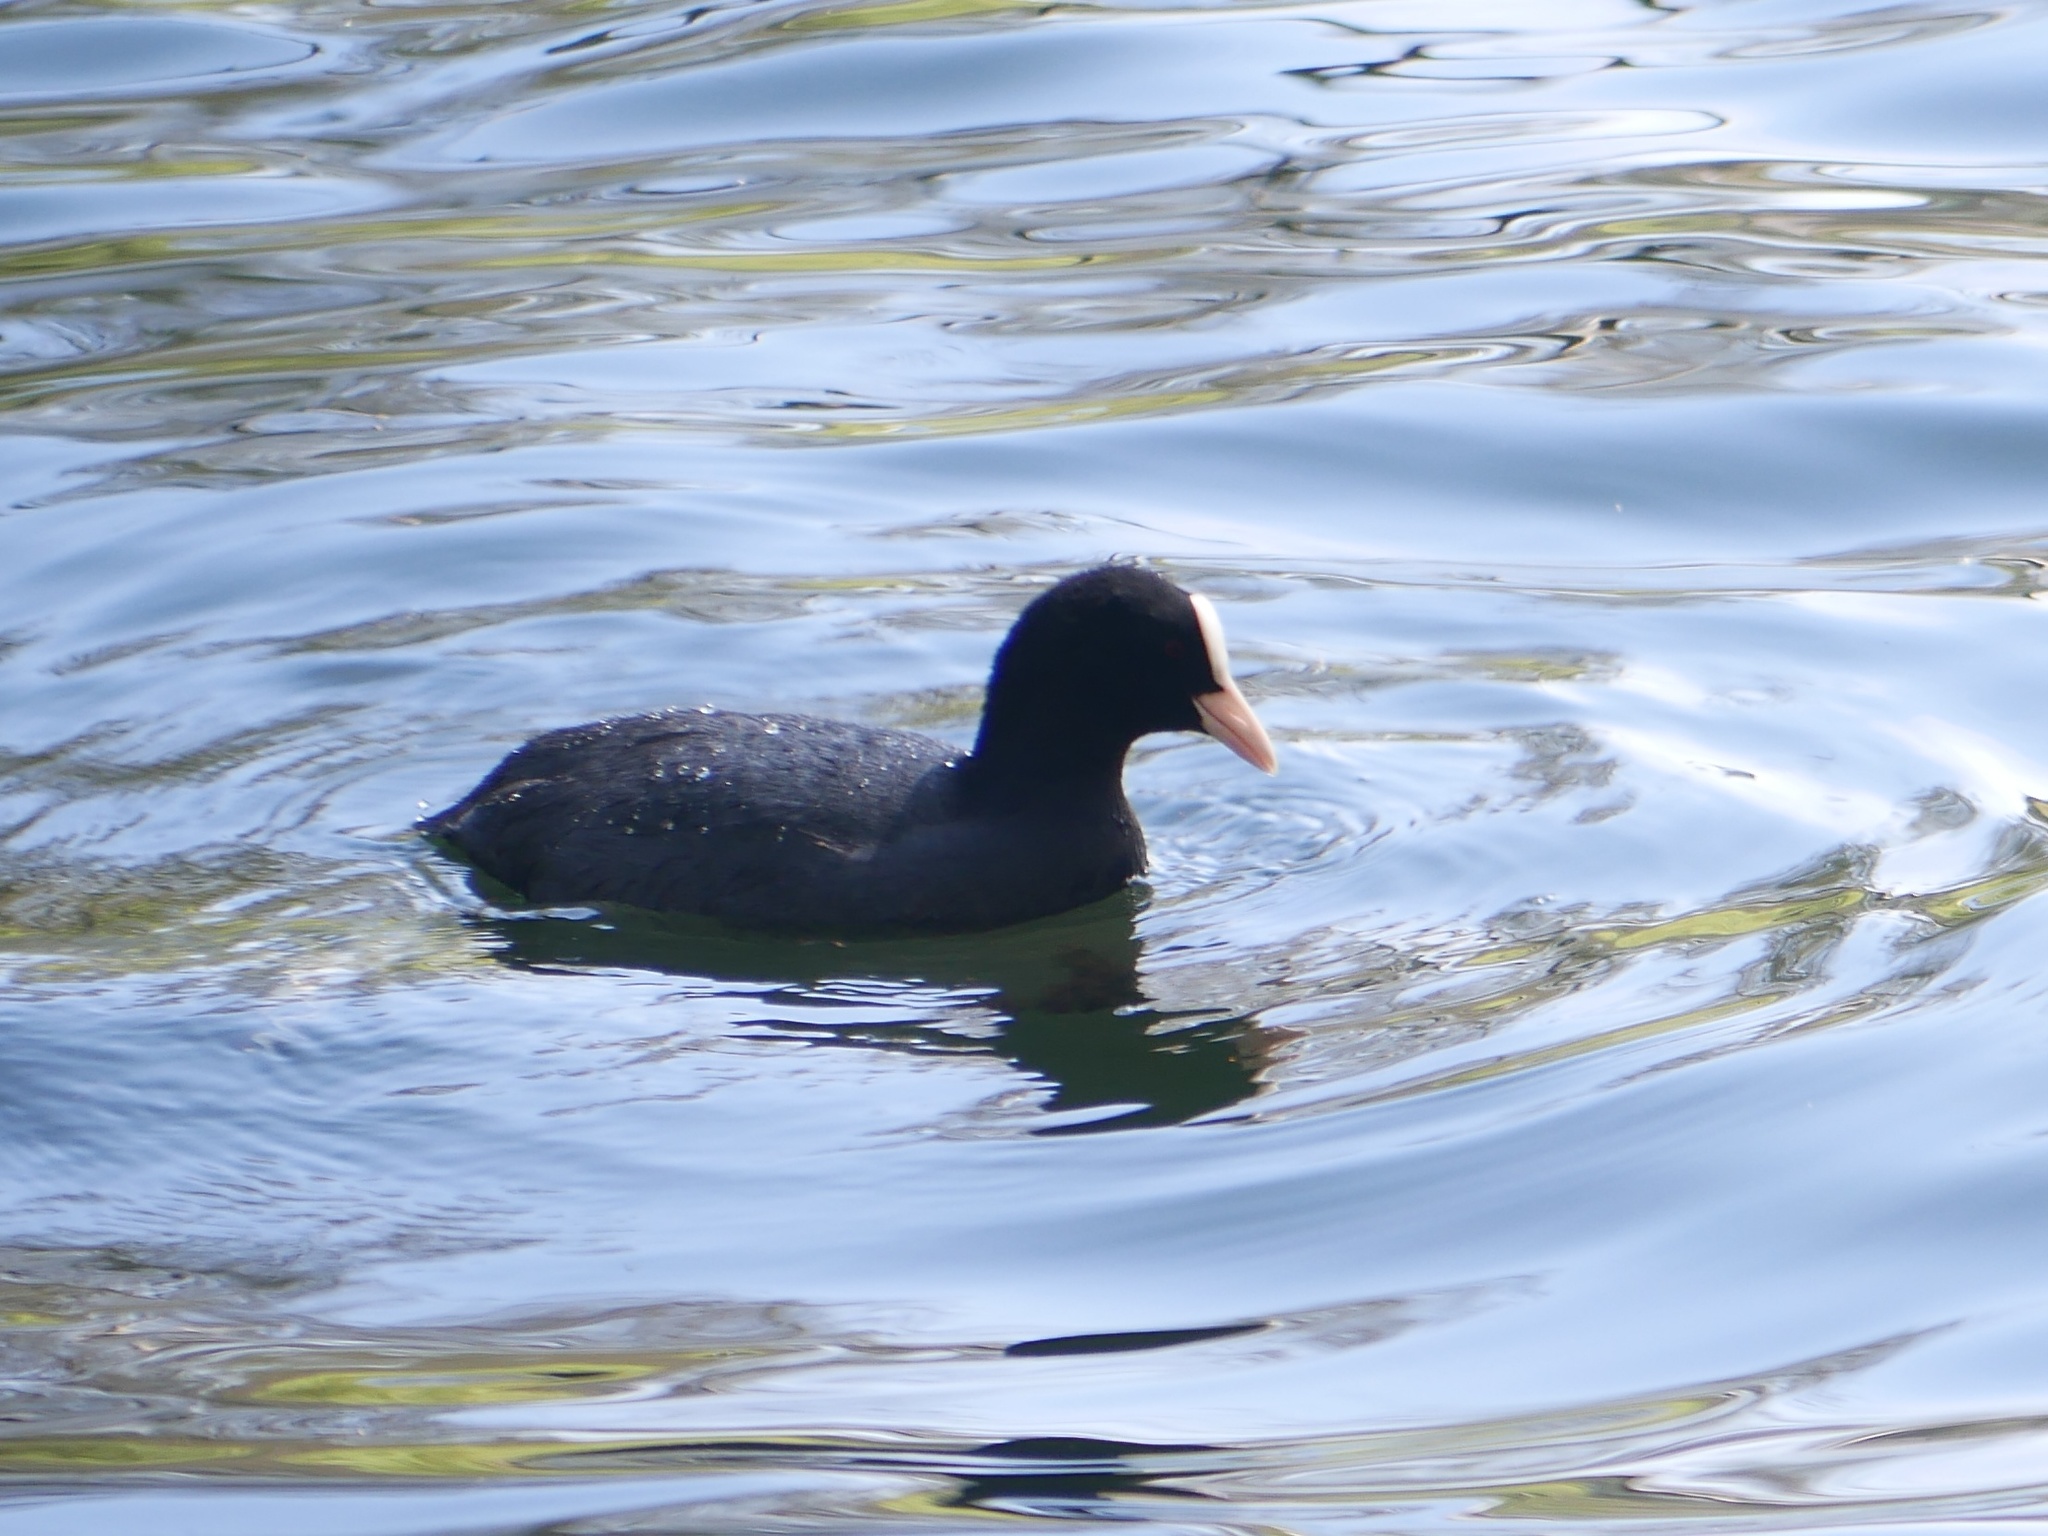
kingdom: Animalia
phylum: Chordata
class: Aves
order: Gruiformes
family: Rallidae
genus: Fulica
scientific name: Fulica atra
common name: Eurasian coot
